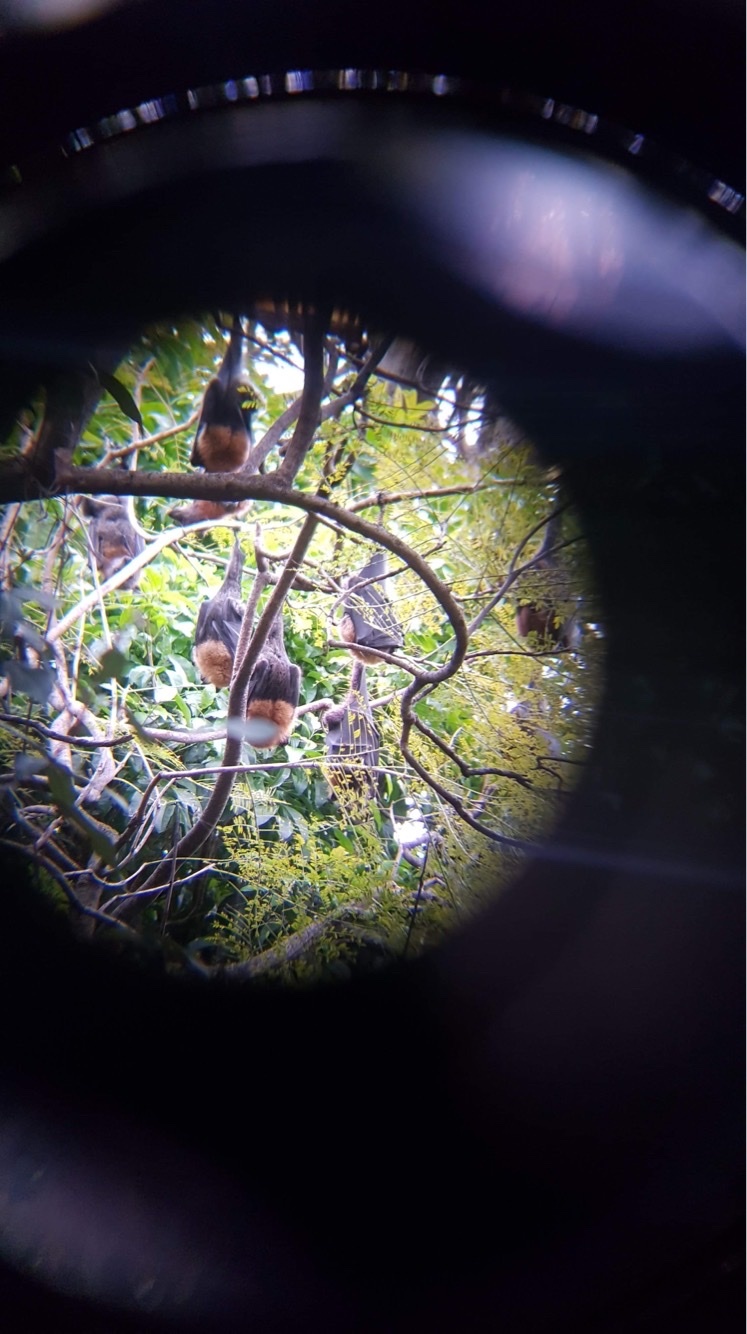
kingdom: Animalia
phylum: Chordata
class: Mammalia
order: Chiroptera
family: Pteropodidae
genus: Pteropus
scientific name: Pteropus poliocephalus
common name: Gray-headed flying fox
